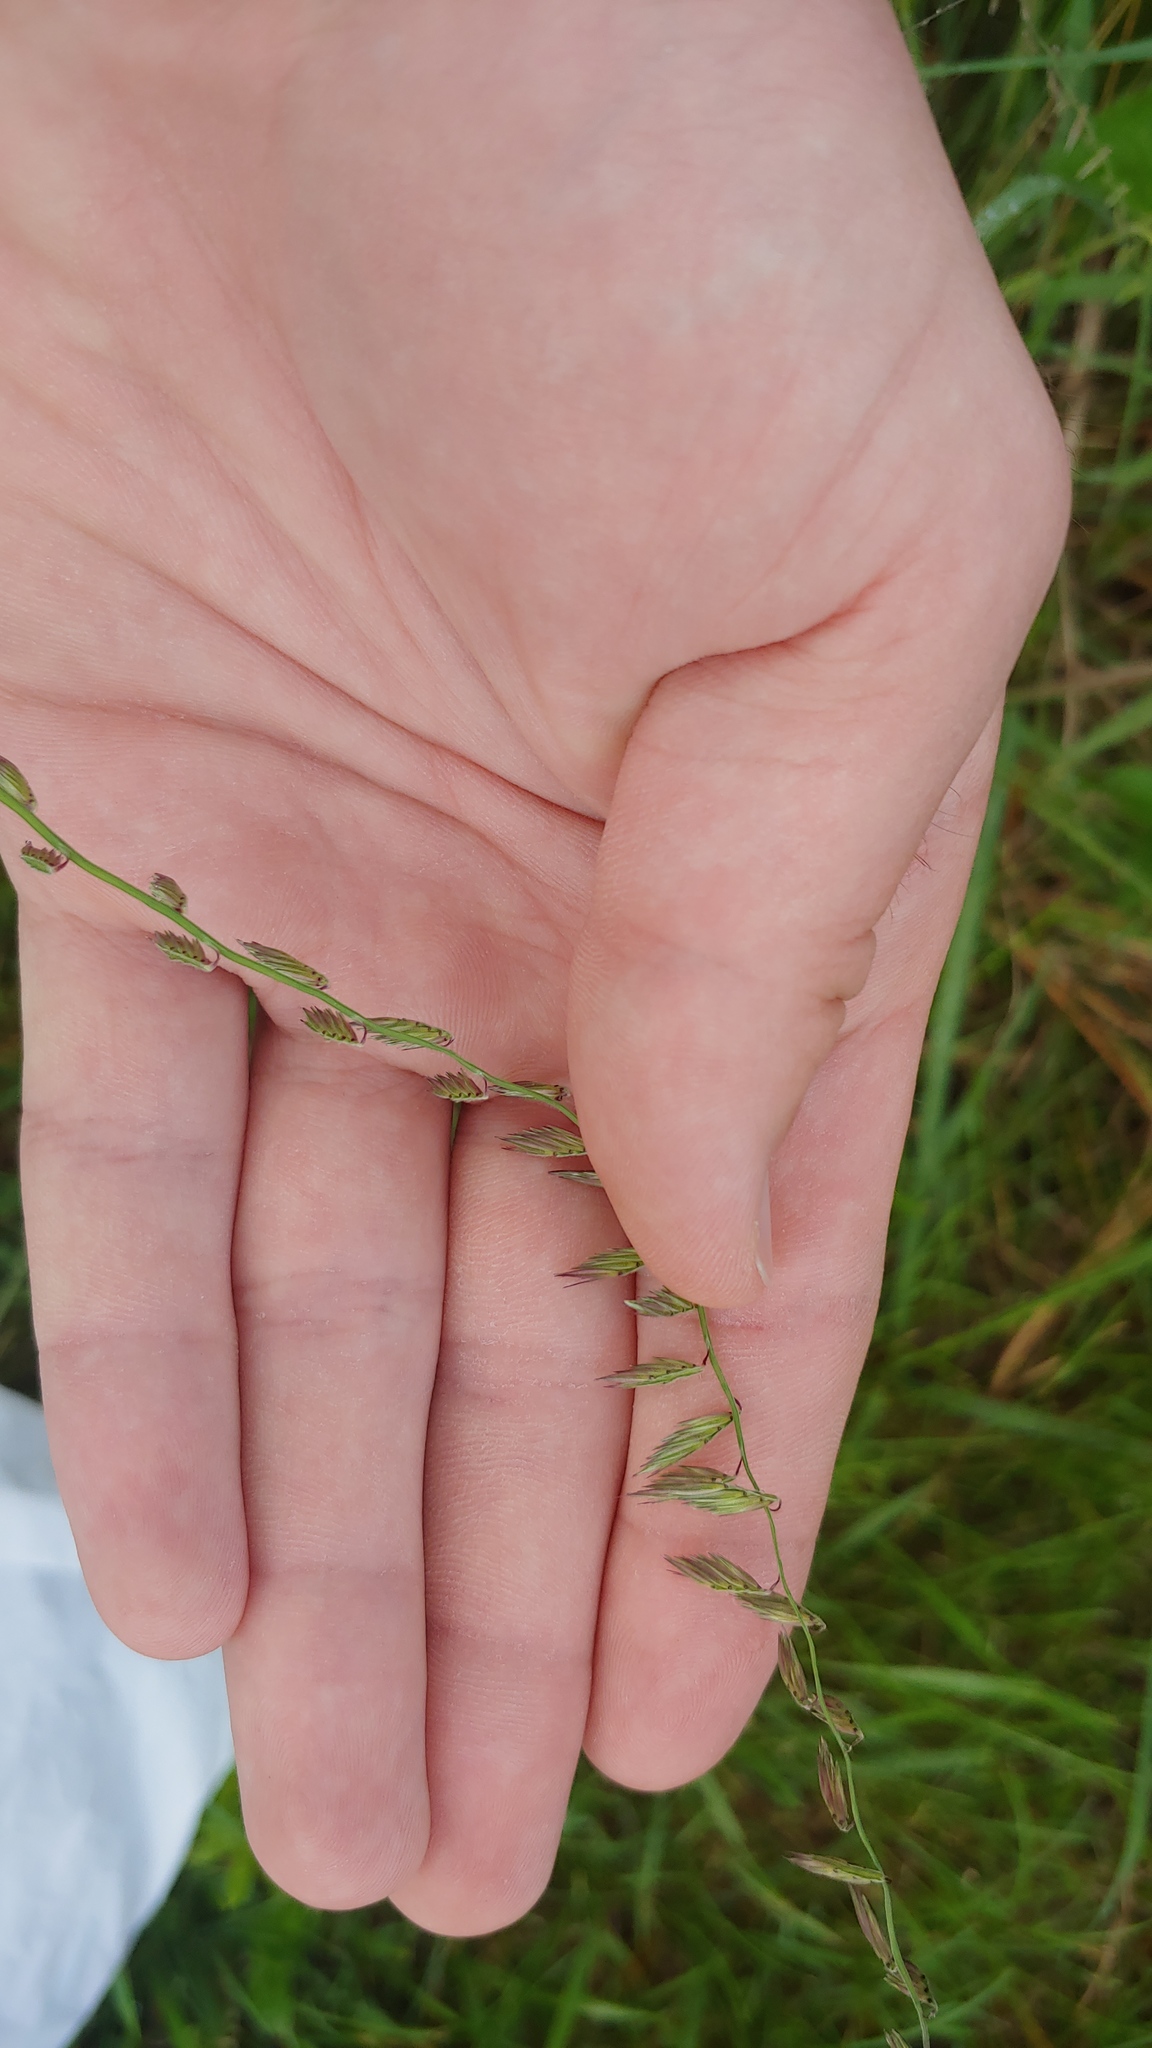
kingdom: Plantae
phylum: Tracheophyta
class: Liliopsida
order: Poales
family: Poaceae
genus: Bouteloua
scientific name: Bouteloua curtipendula
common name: Side-oats grama
